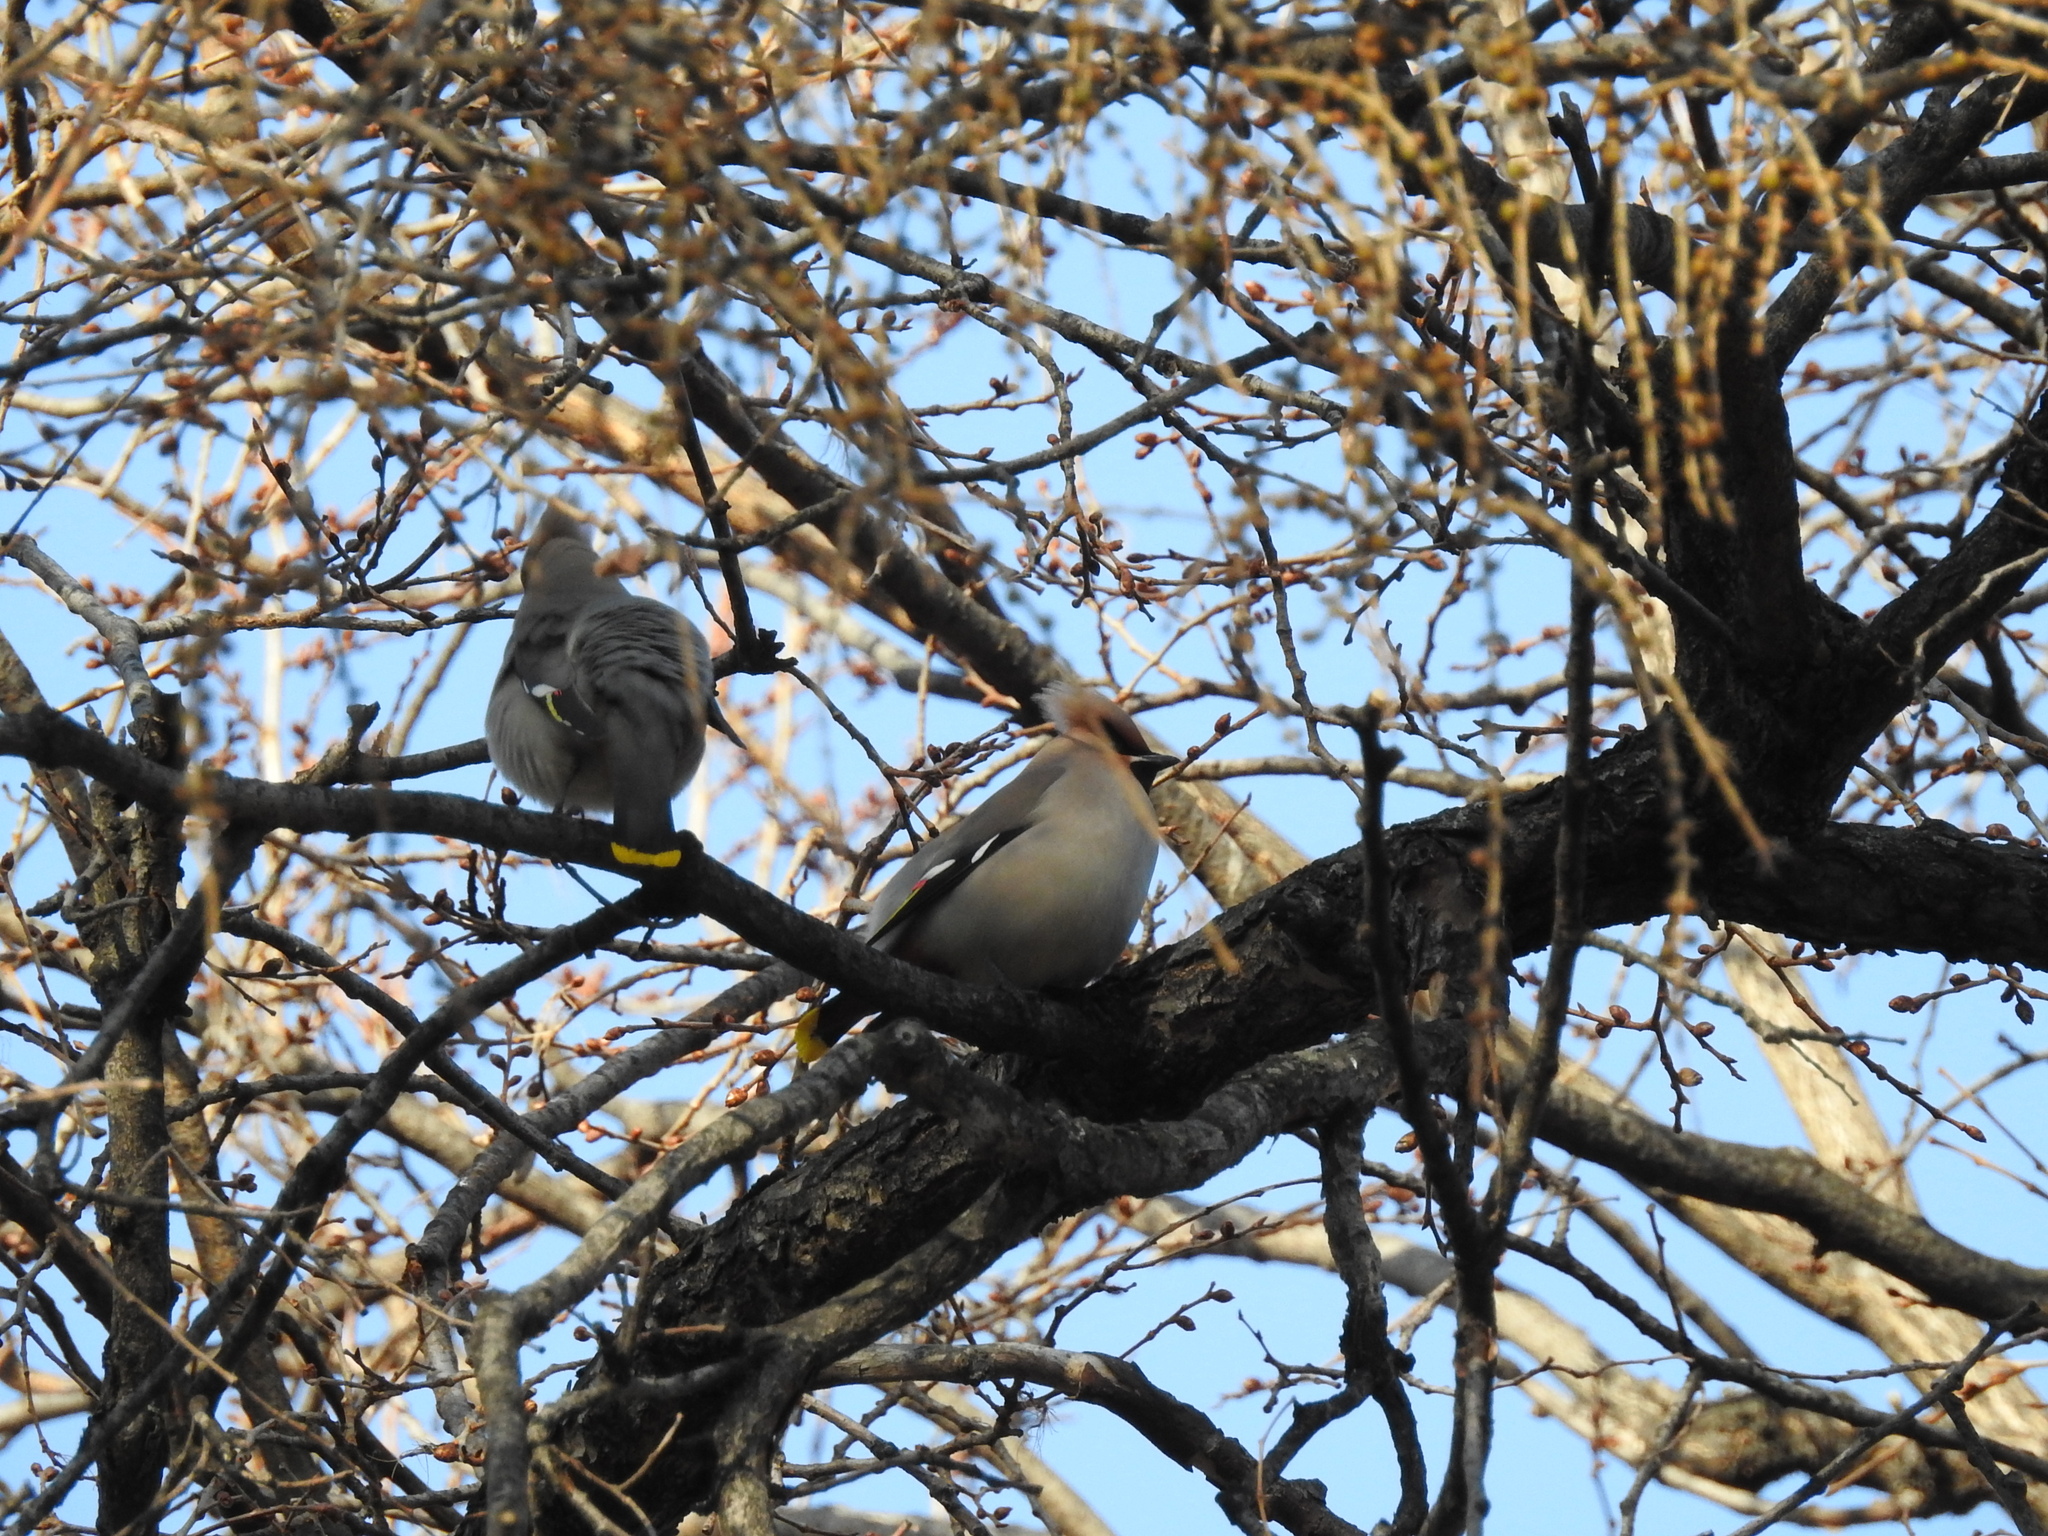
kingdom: Animalia
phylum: Chordata
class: Aves
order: Passeriformes
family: Bombycillidae
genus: Bombycilla
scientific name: Bombycilla garrulus
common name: Bohemian waxwing
